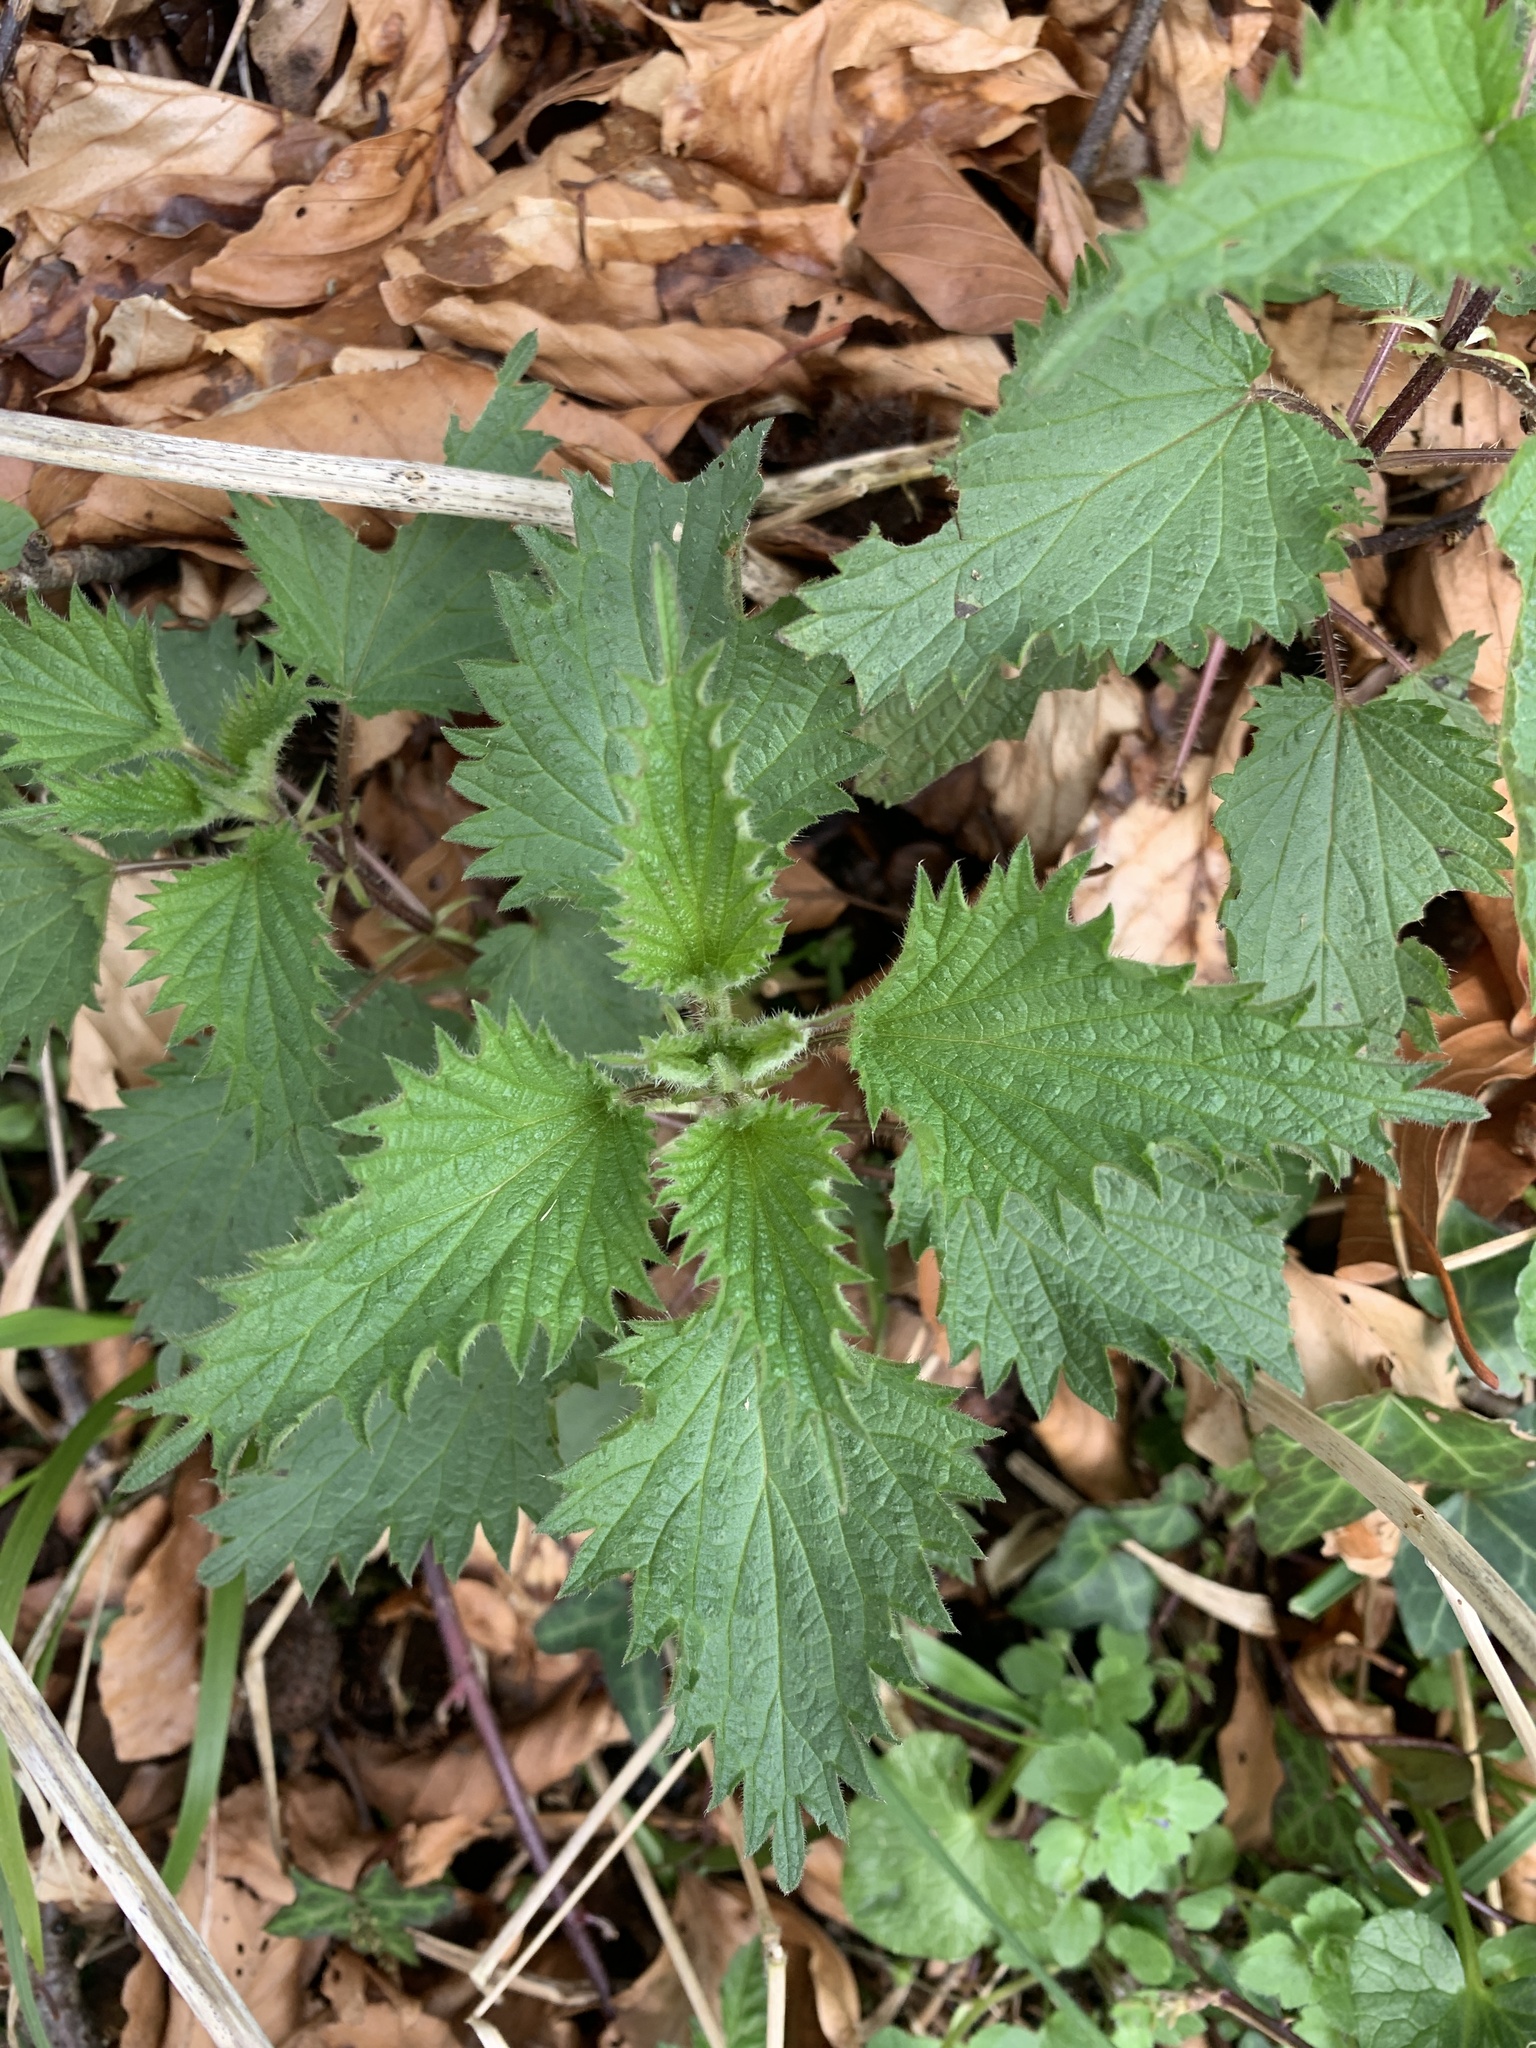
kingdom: Plantae
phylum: Tracheophyta
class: Magnoliopsida
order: Rosales
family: Urticaceae
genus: Urtica
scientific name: Urtica dioica
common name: Common nettle
